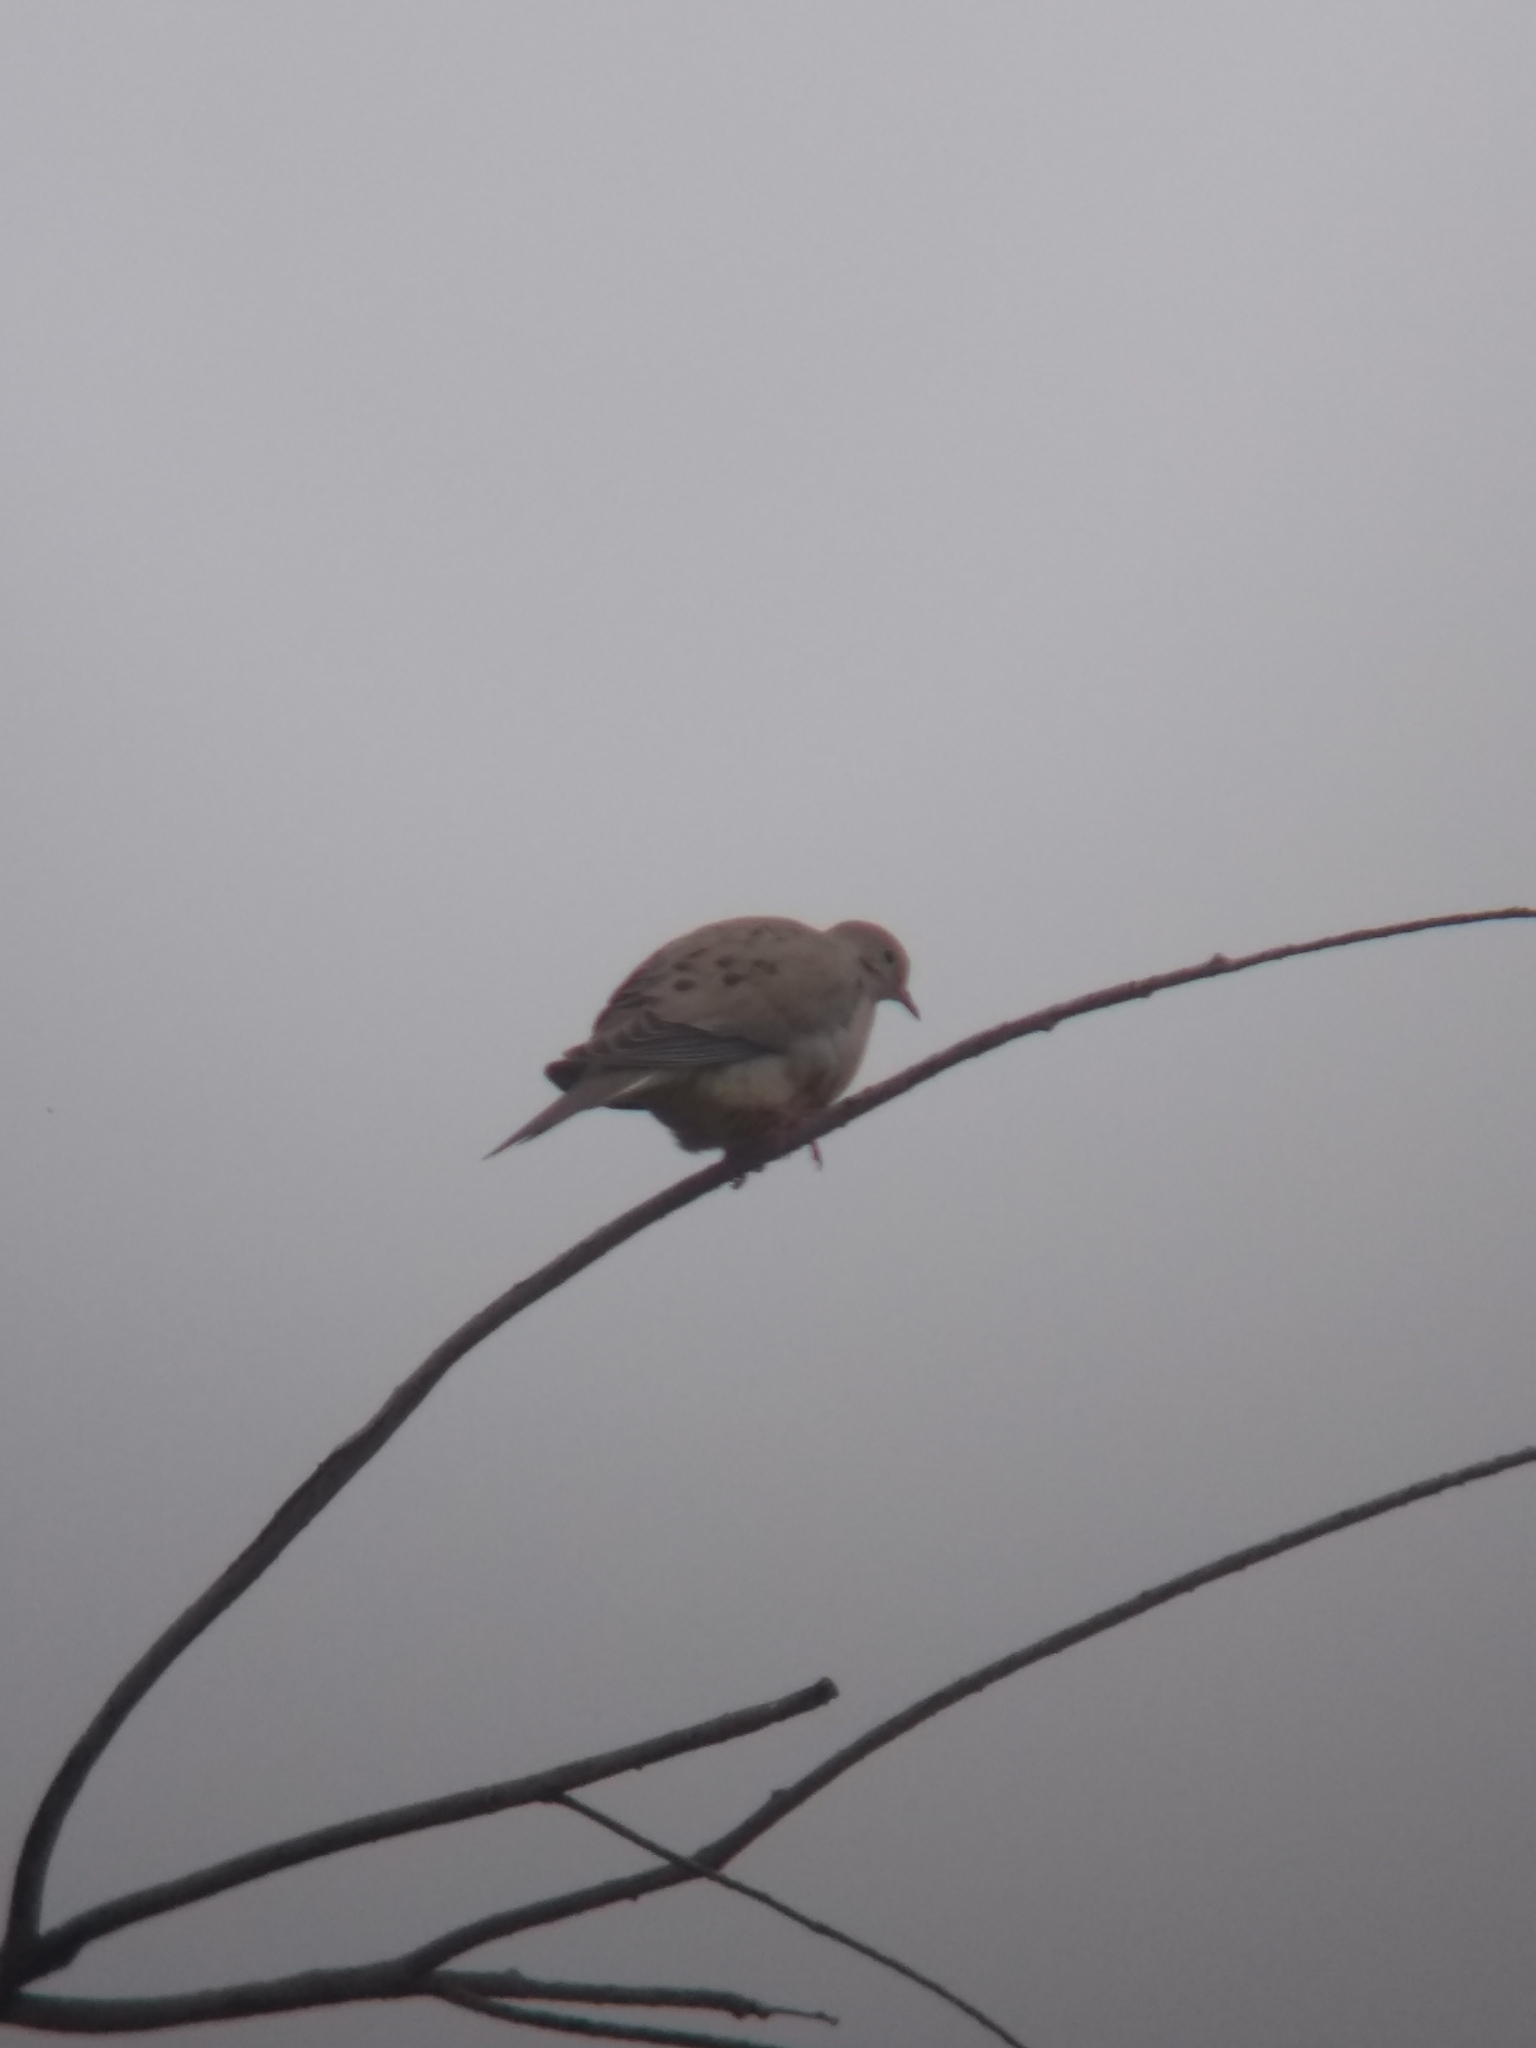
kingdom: Animalia
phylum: Chordata
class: Aves
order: Columbiformes
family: Columbidae
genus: Zenaida
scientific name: Zenaida macroura
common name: Mourning dove
